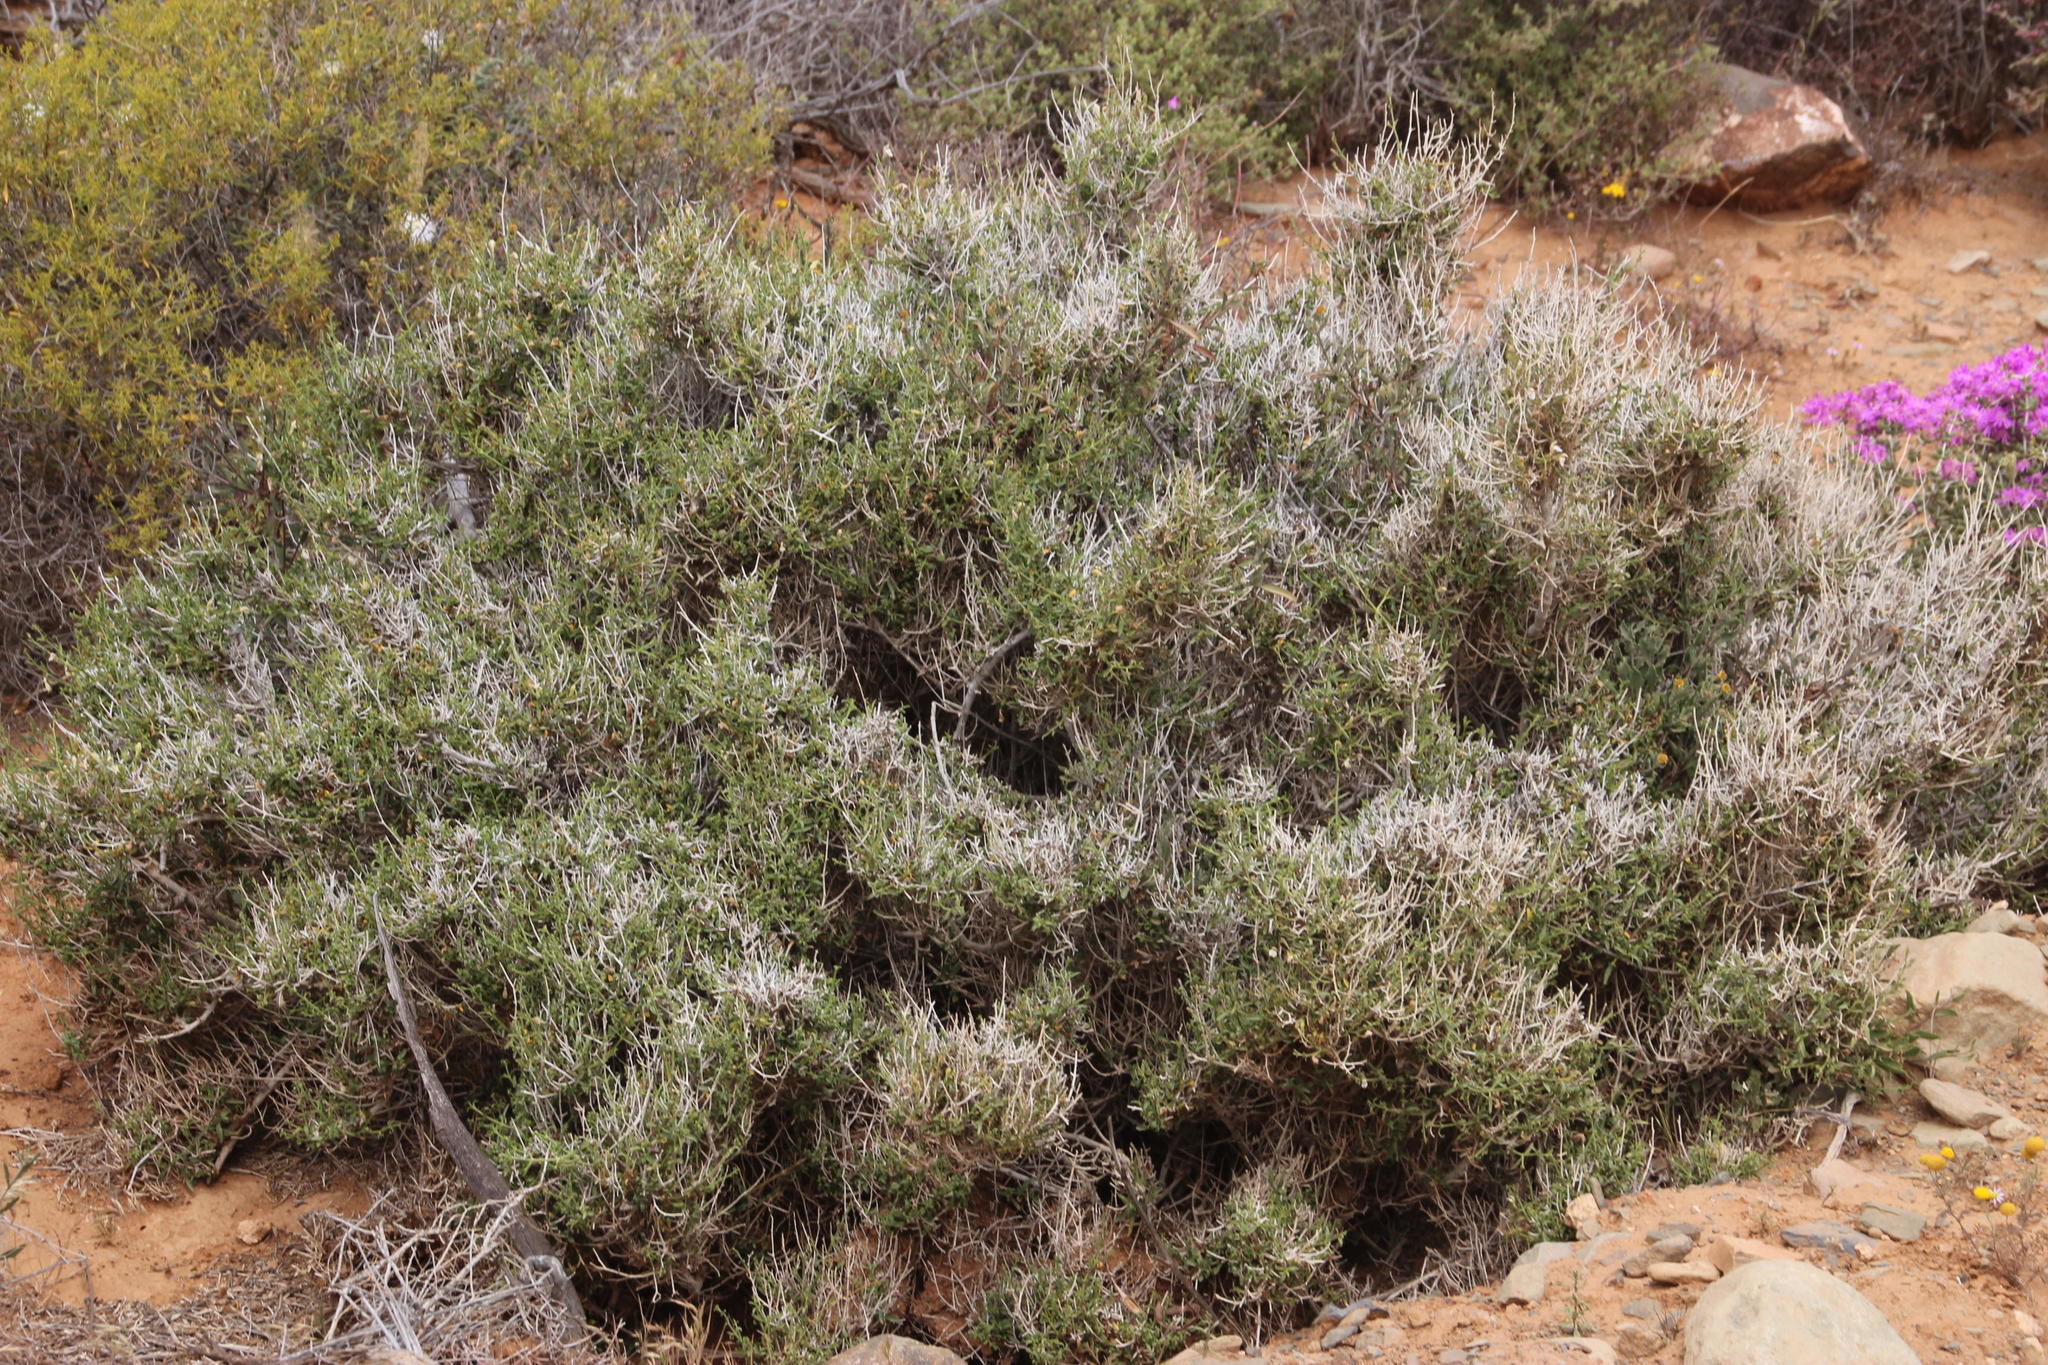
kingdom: Plantae
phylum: Tracheophyta
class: Magnoliopsida
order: Lamiales
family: Acanthaceae
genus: Pogonospermum
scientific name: Pogonospermum
